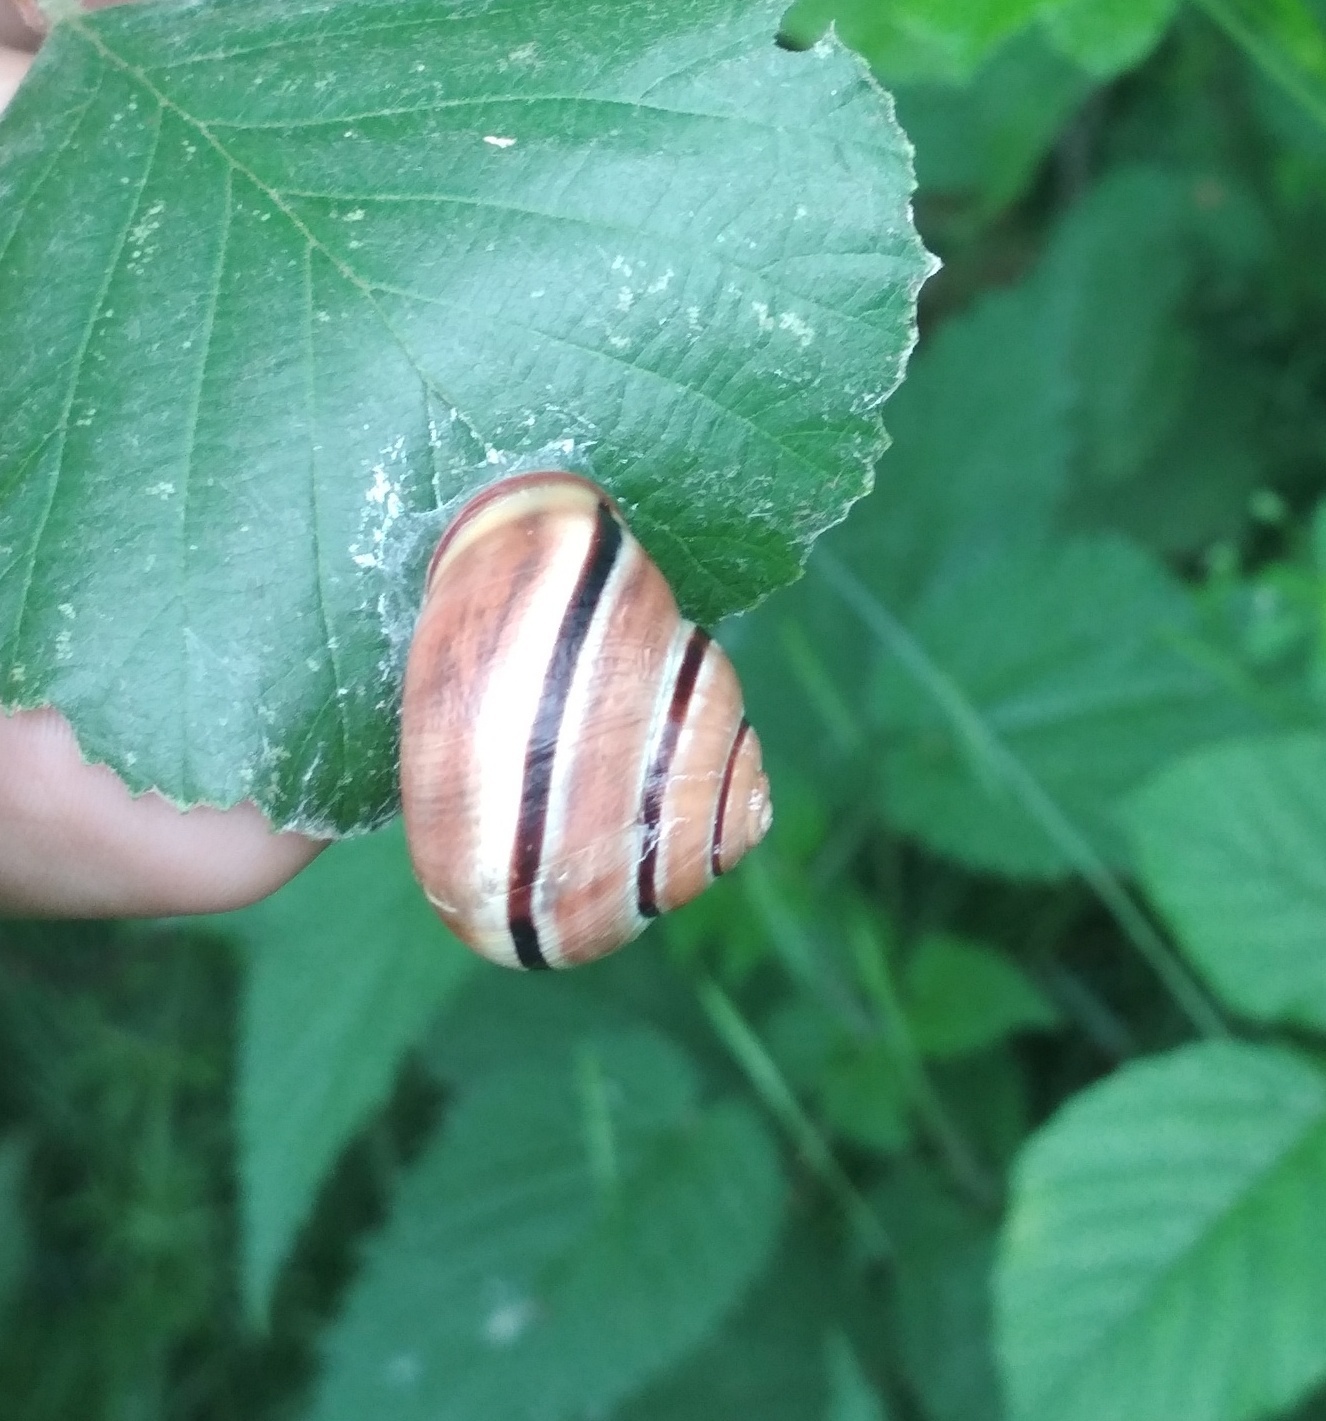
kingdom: Animalia
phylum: Mollusca
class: Gastropoda
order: Stylommatophora
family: Helicidae
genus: Cepaea
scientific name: Cepaea nemoralis
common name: Grovesnail
